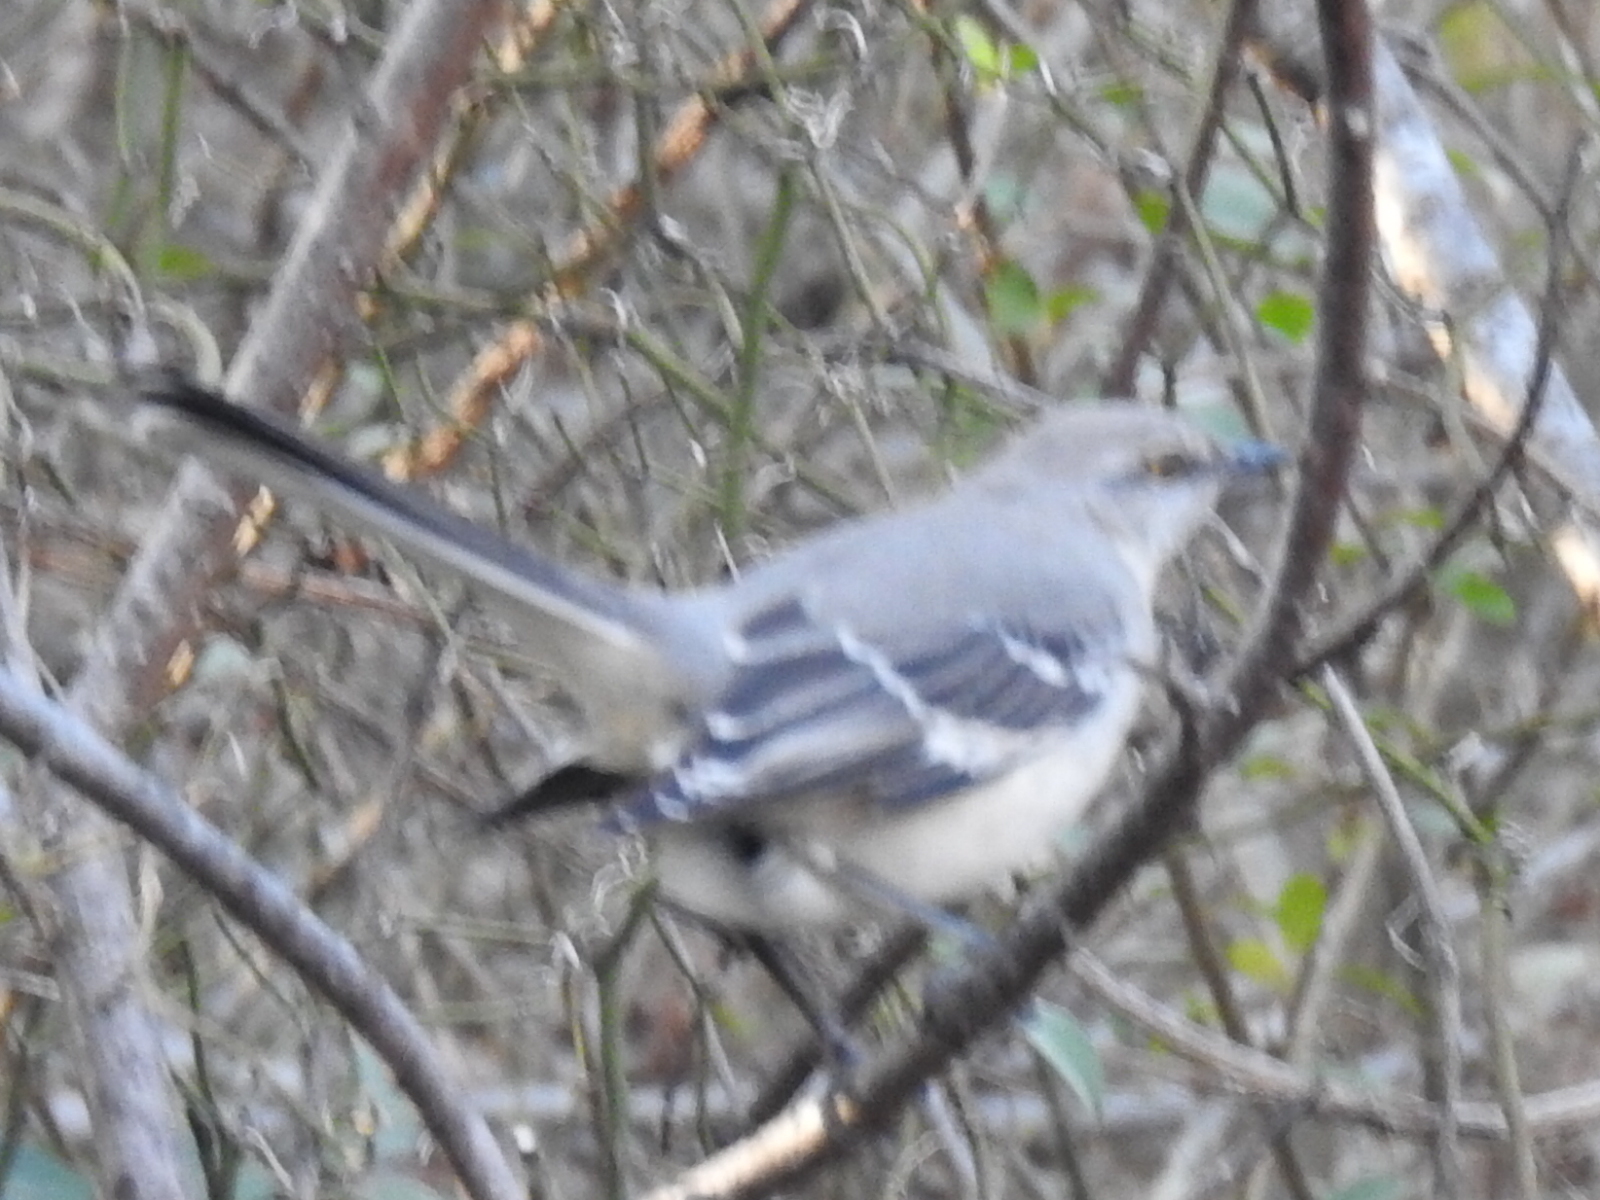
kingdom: Animalia
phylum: Chordata
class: Aves
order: Passeriformes
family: Mimidae
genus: Mimus
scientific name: Mimus polyglottos
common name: Northern mockingbird
